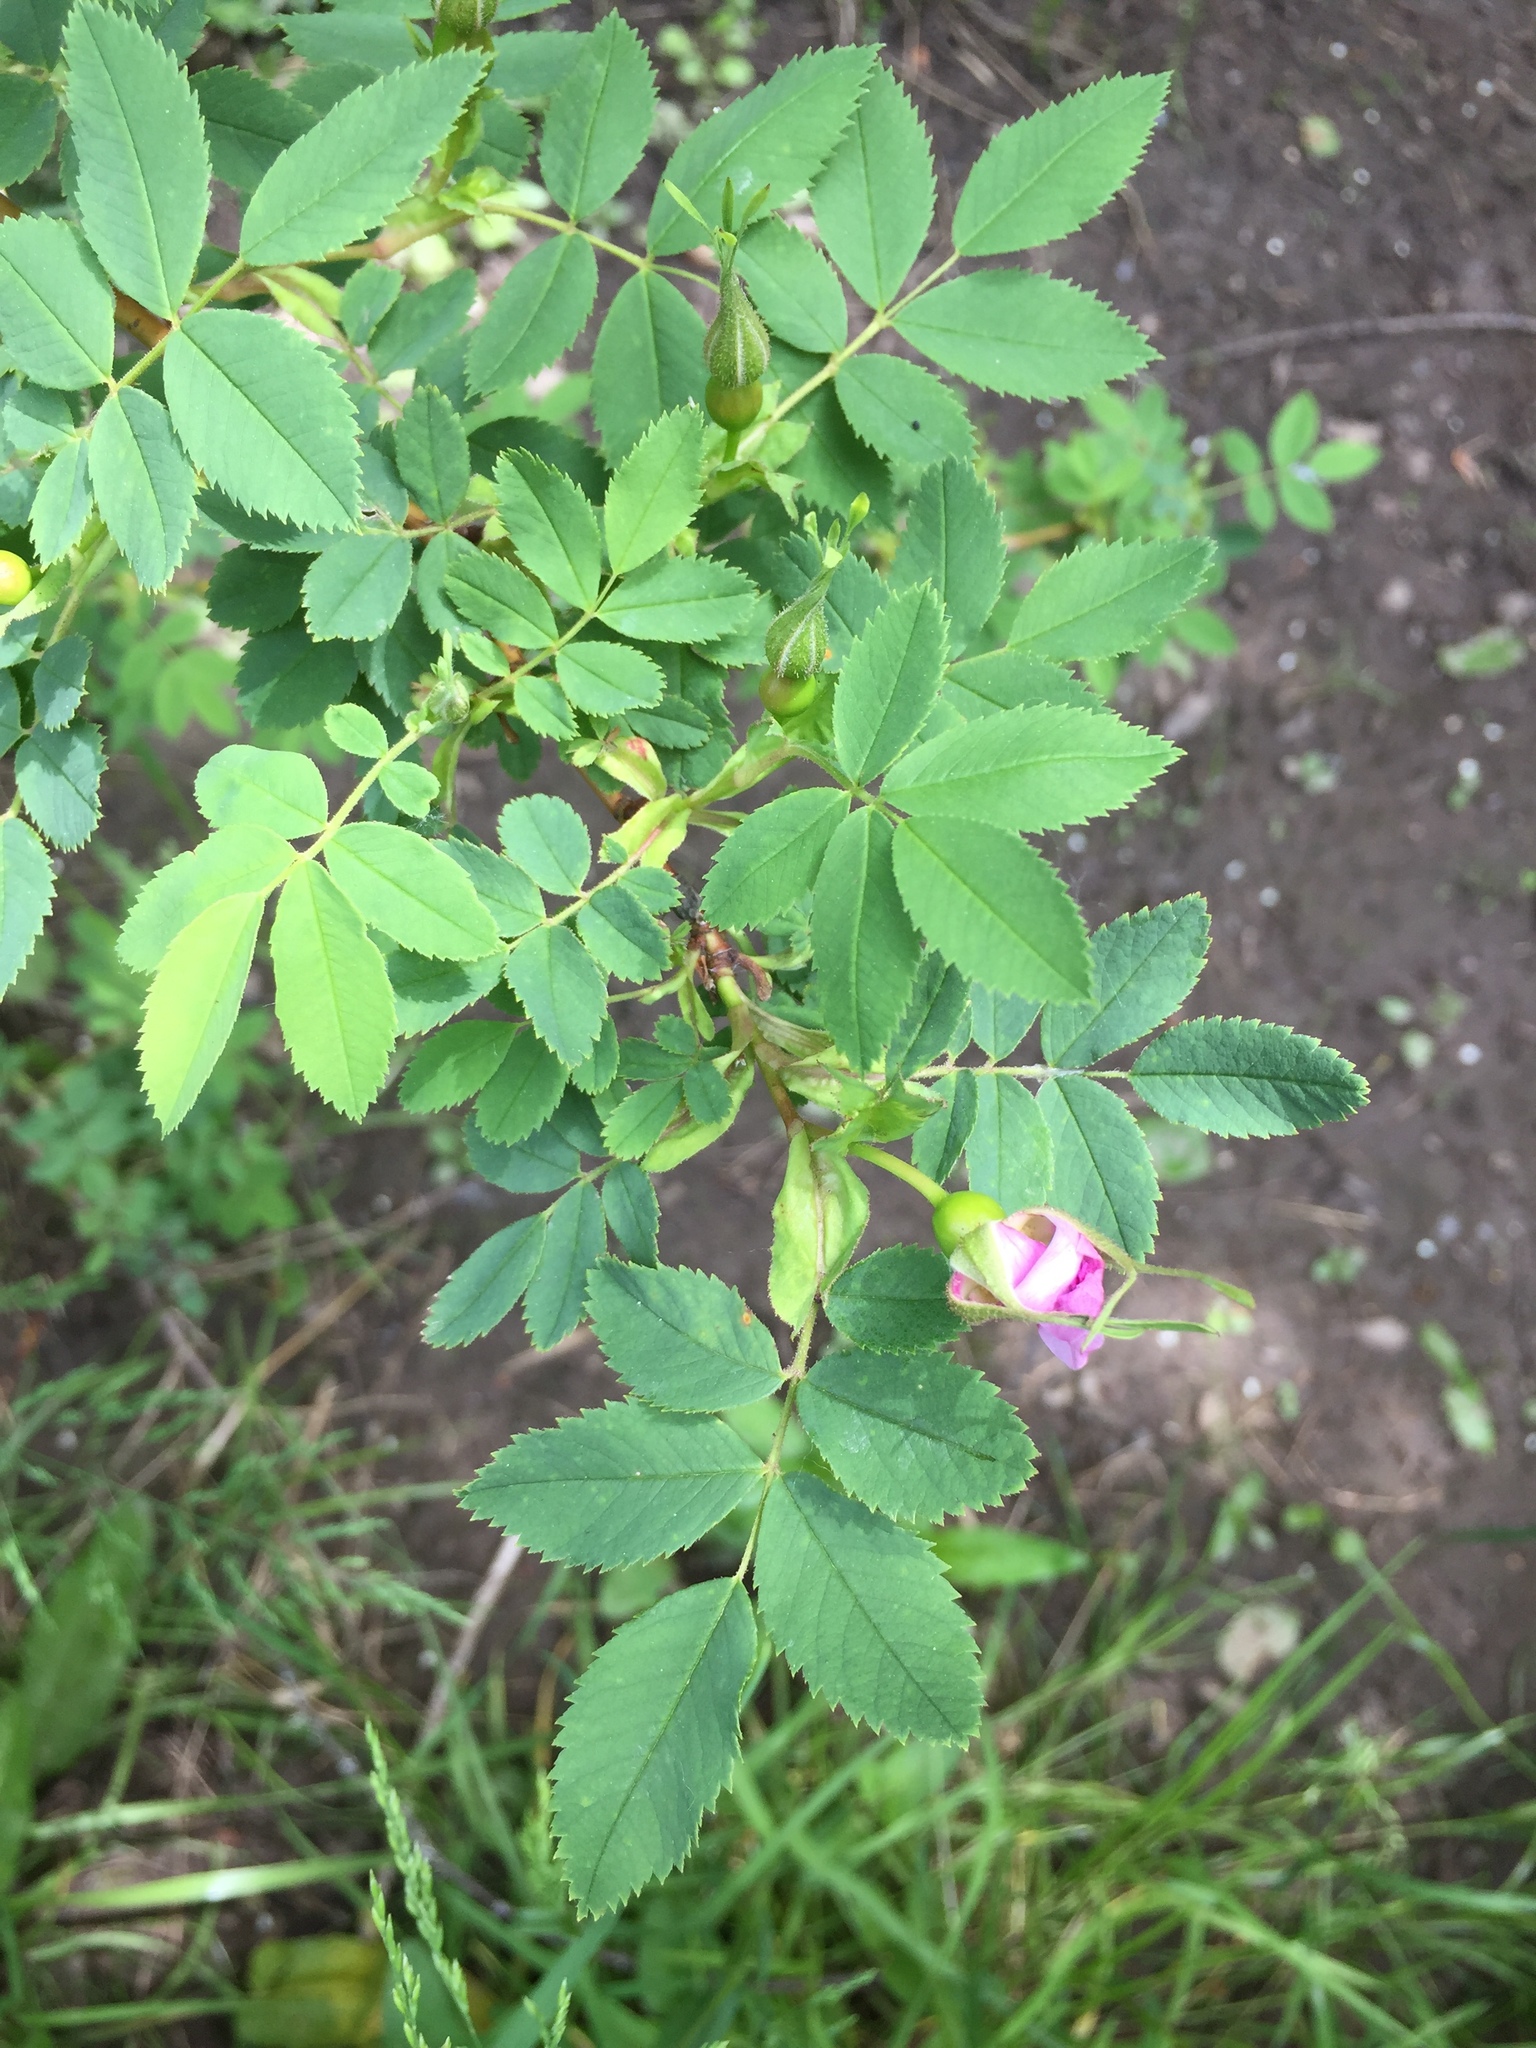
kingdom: Plantae
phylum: Tracheophyta
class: Magnoliopsida
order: Rosales
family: Rosaceae
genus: Rosa
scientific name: Rosa gymnocarpa
